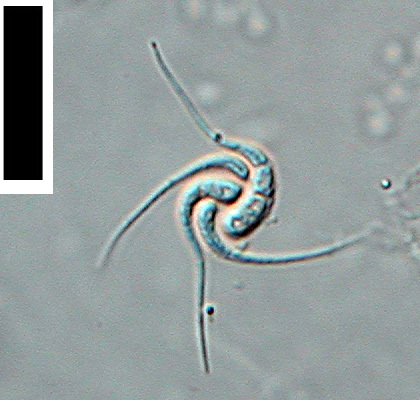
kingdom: Fungi
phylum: Ascomycota
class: Leotiomycetes
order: Helotiales
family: Discinellaceae
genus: Gyoerffyella
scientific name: Gyoerffyella speciosa
